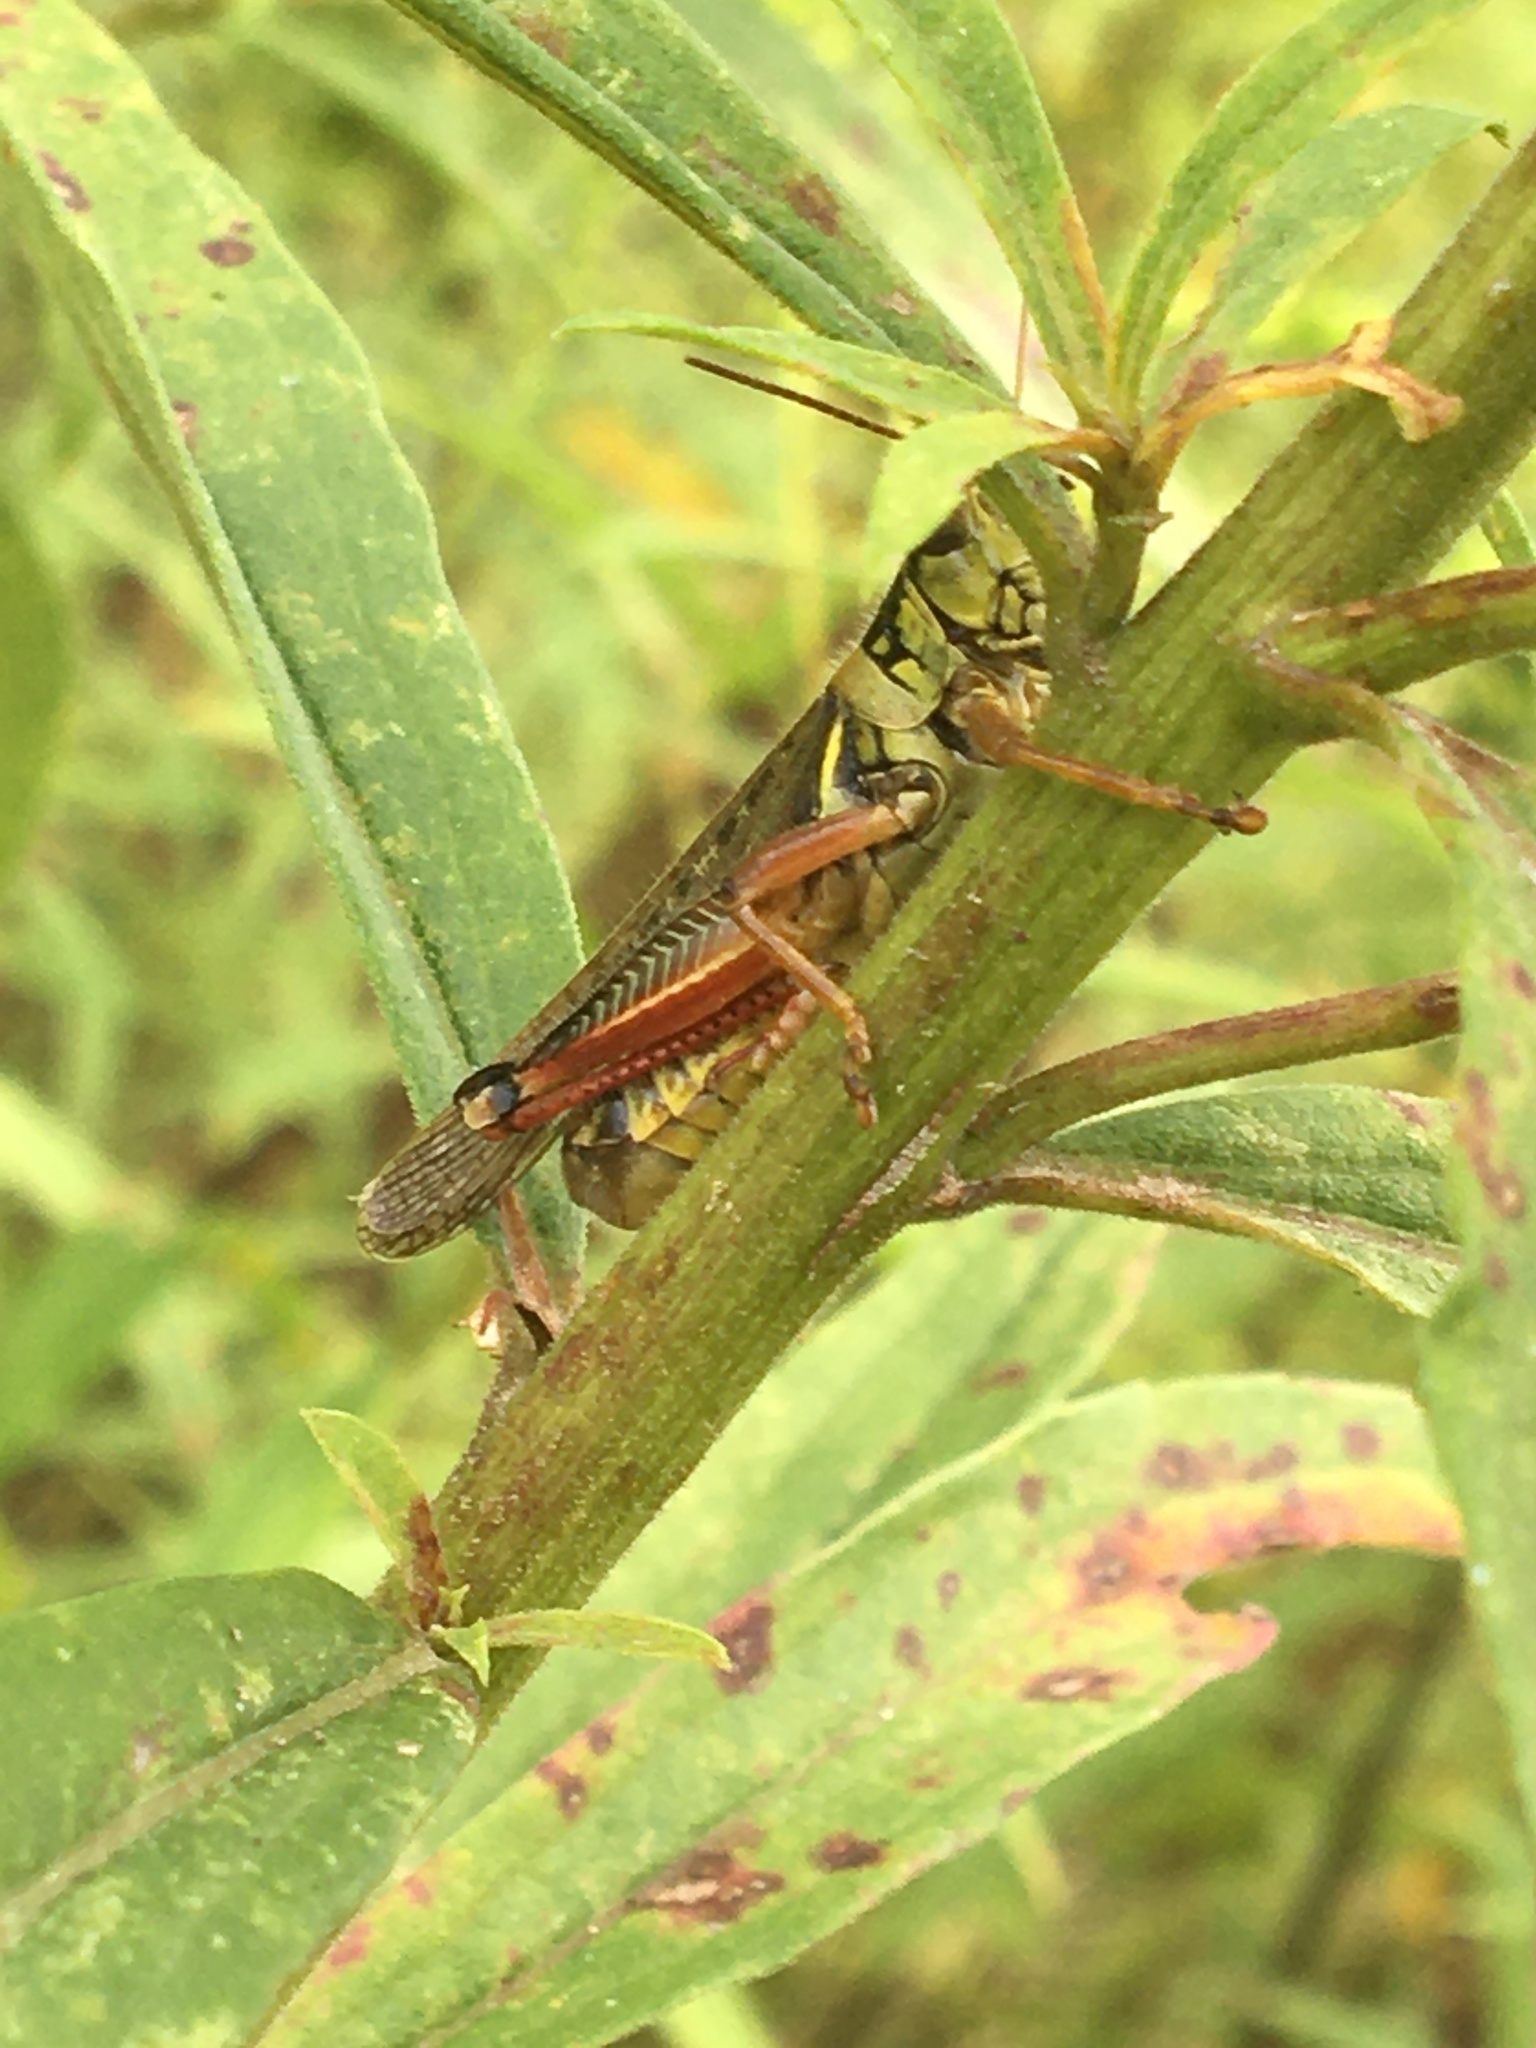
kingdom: Animalia
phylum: Arthropoda
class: Insecta
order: Orthoptera
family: Acrididae
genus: Melanoplus
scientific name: Melanoplus femurrubrum
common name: Red-legged grasshopper
